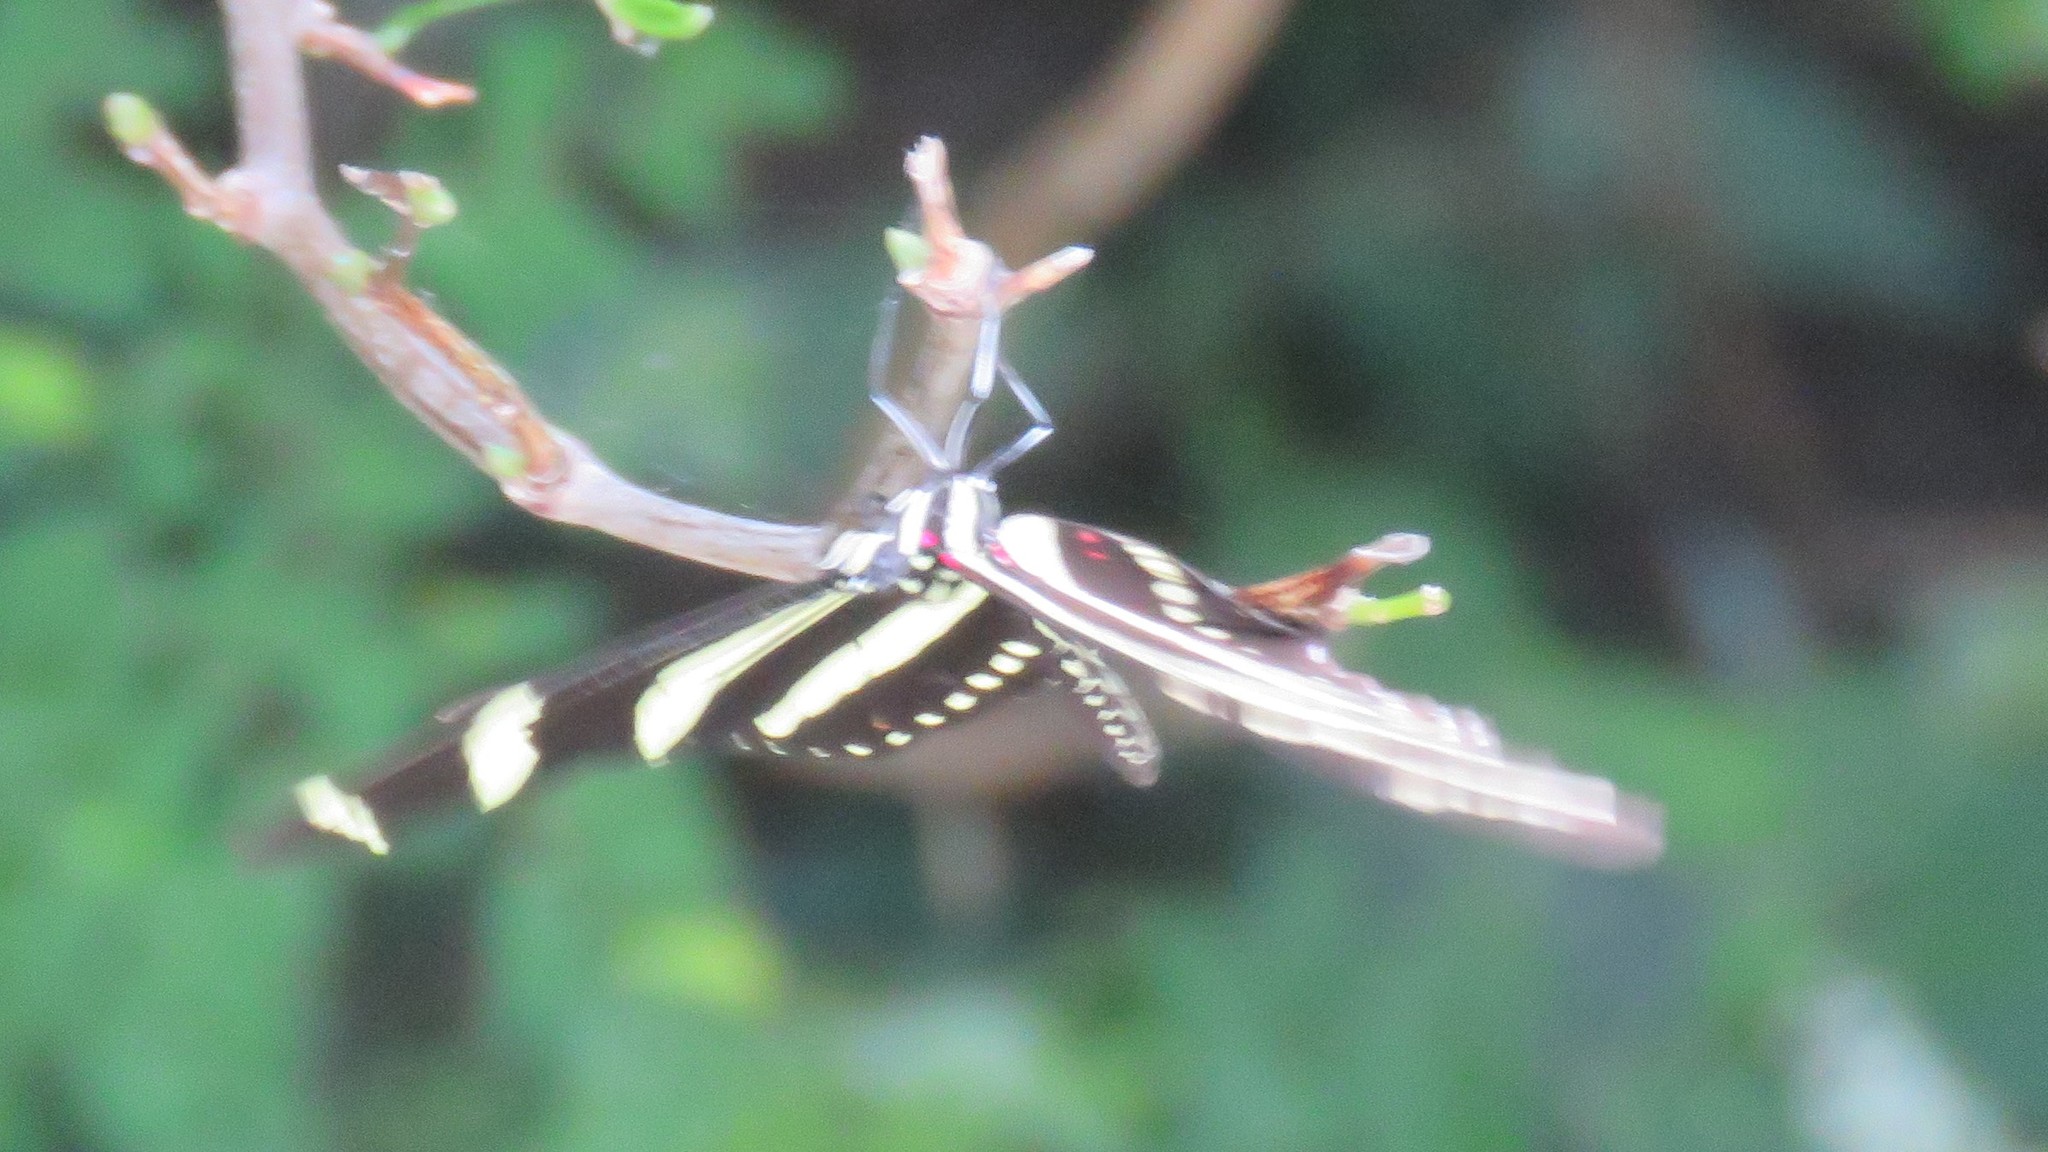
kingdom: Animalia
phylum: Arthropoda
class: Insecta
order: Lepidoptera
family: Nymphalidae
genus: Heliconius
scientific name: Heliconius charithonia
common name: Zebra long wing
